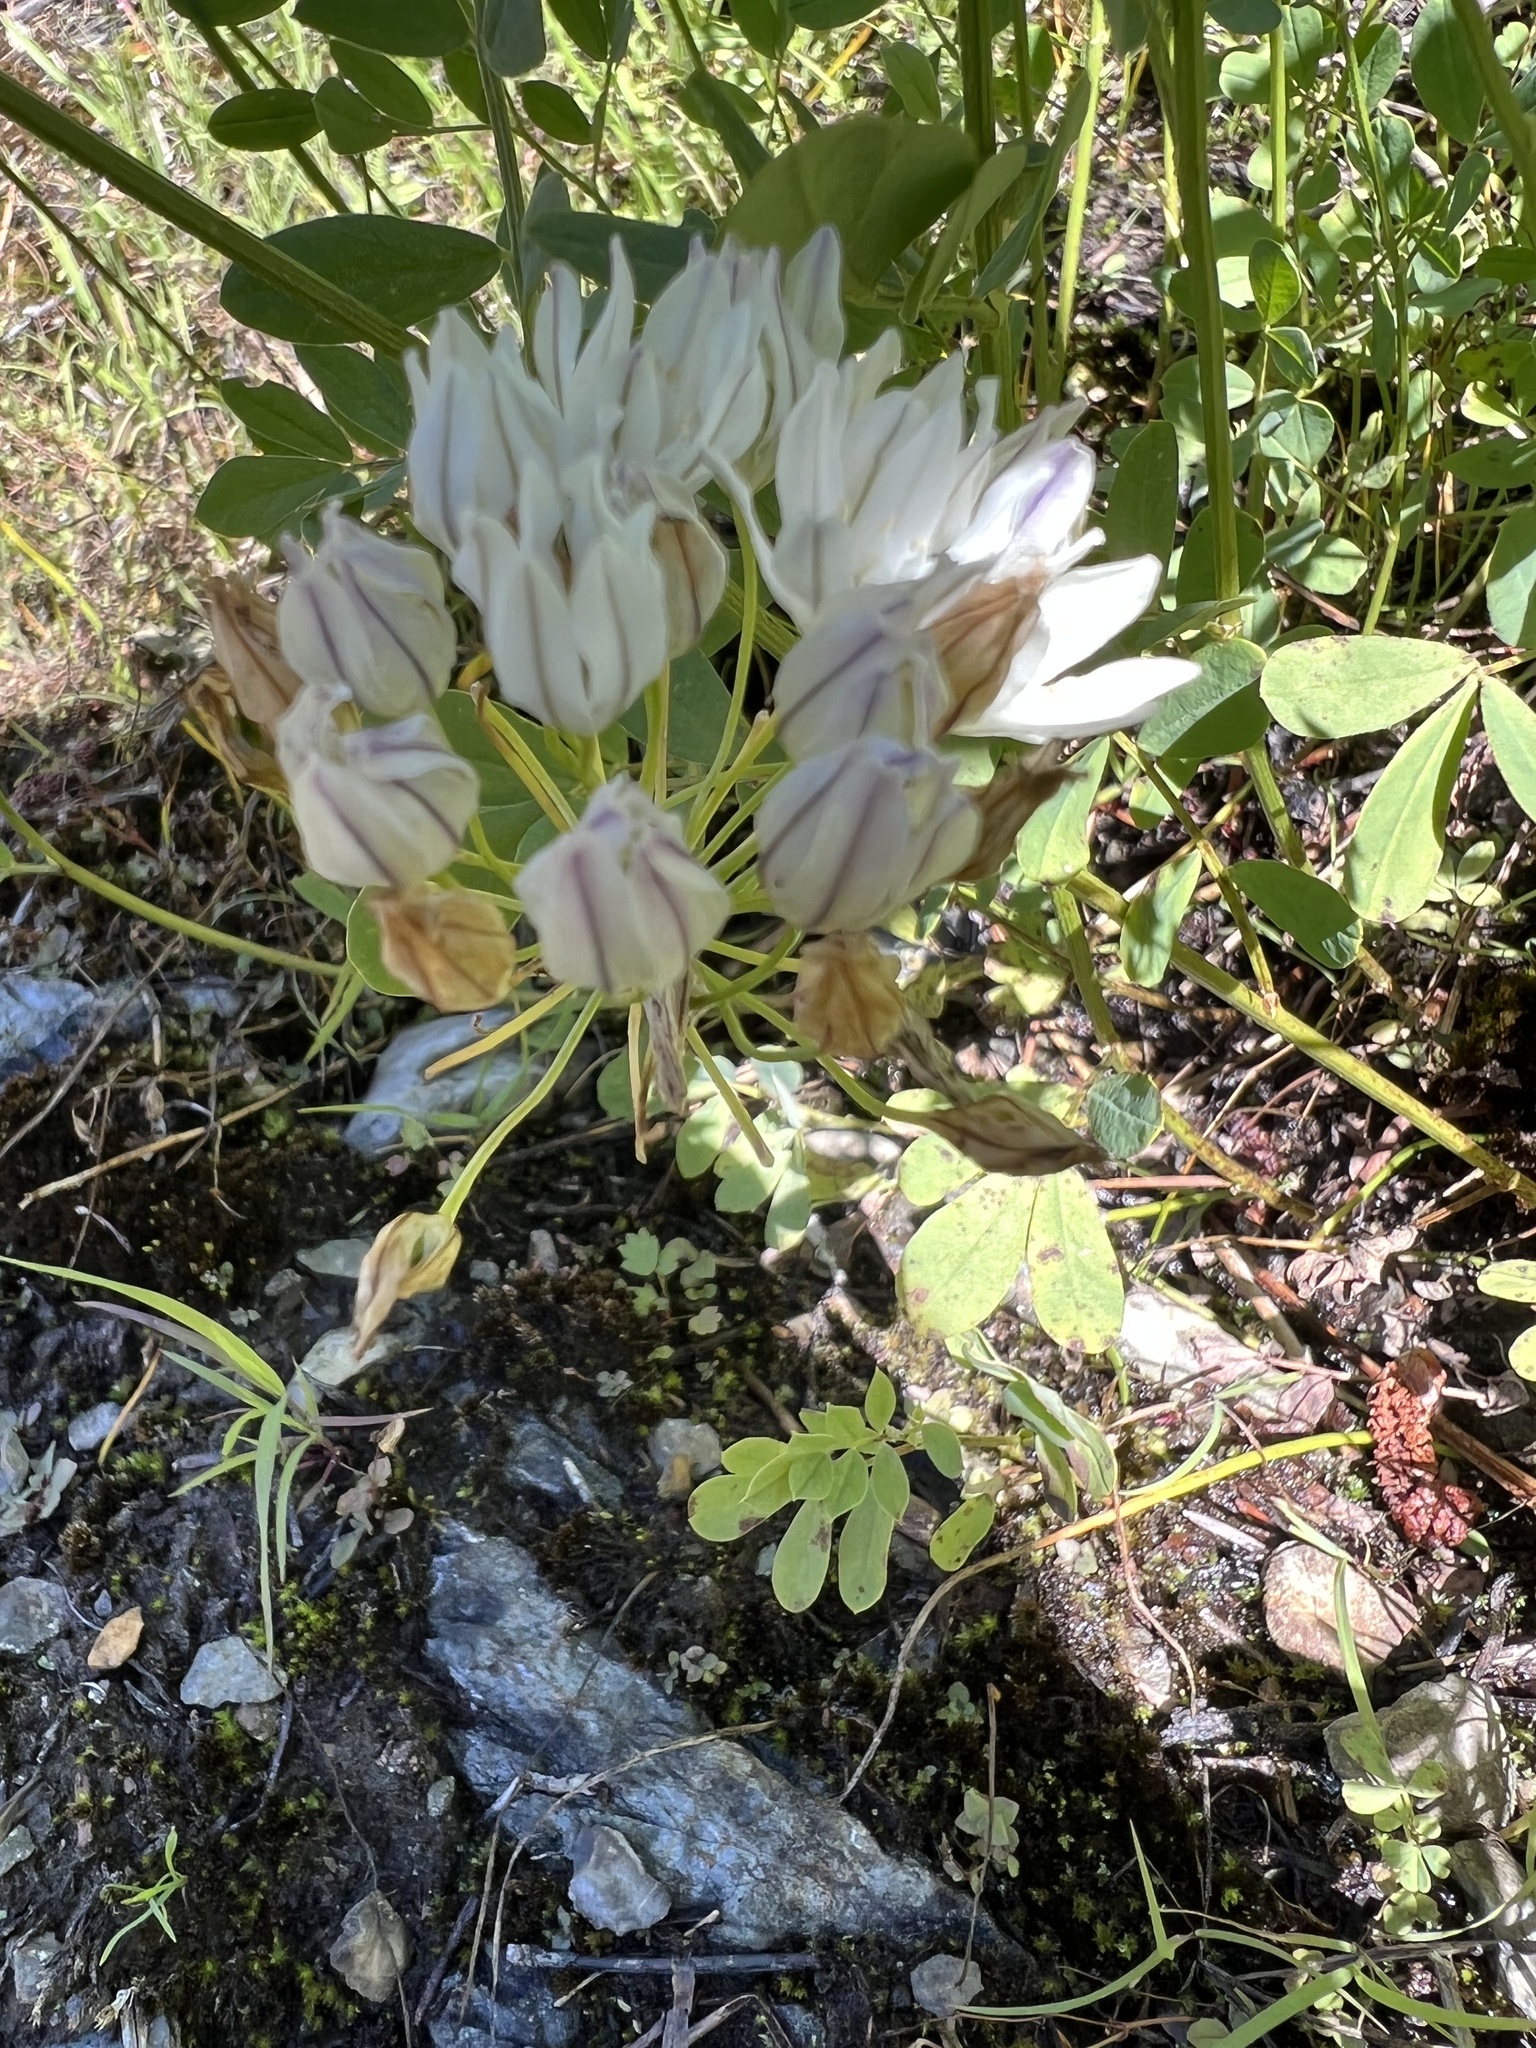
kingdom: Plantae
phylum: Tracheophyta
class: Liliopsida
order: Asparagales
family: Asparagaceae
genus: Triteleia
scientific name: Triteleia hyacinthina
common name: White brodiaea
